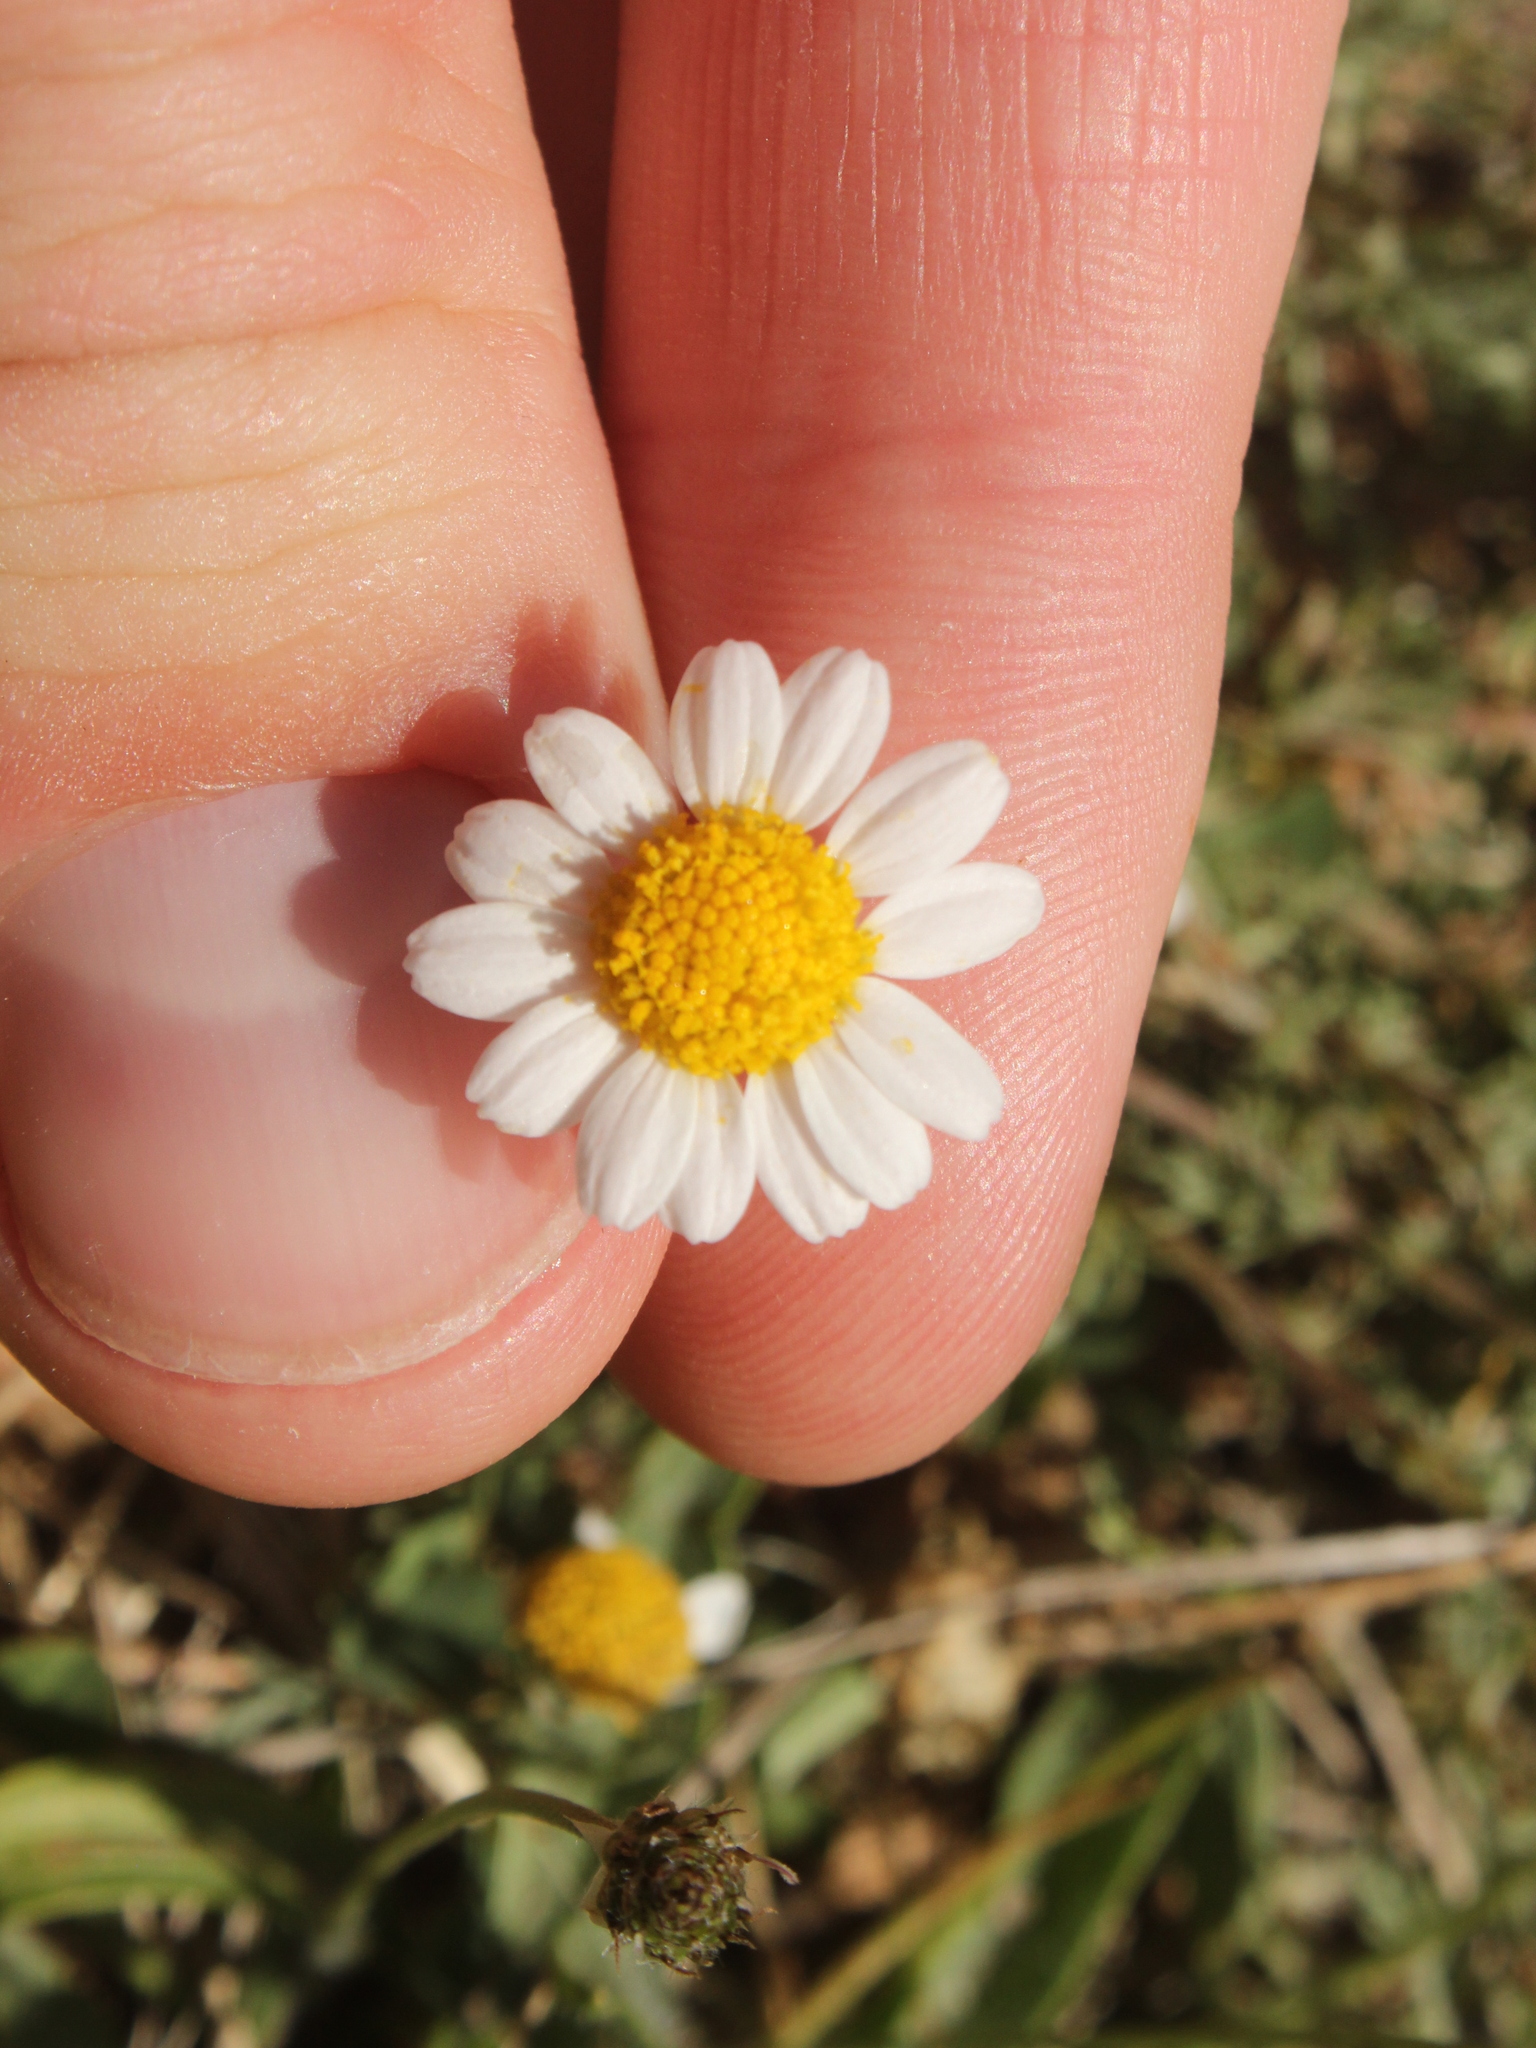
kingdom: Plantae
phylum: Tracheophyta
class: Magnoliopsida
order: Asterales
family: Asteraceae
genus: Chamaemelum
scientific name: Chamaemelum nobile
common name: Roman chamomile
